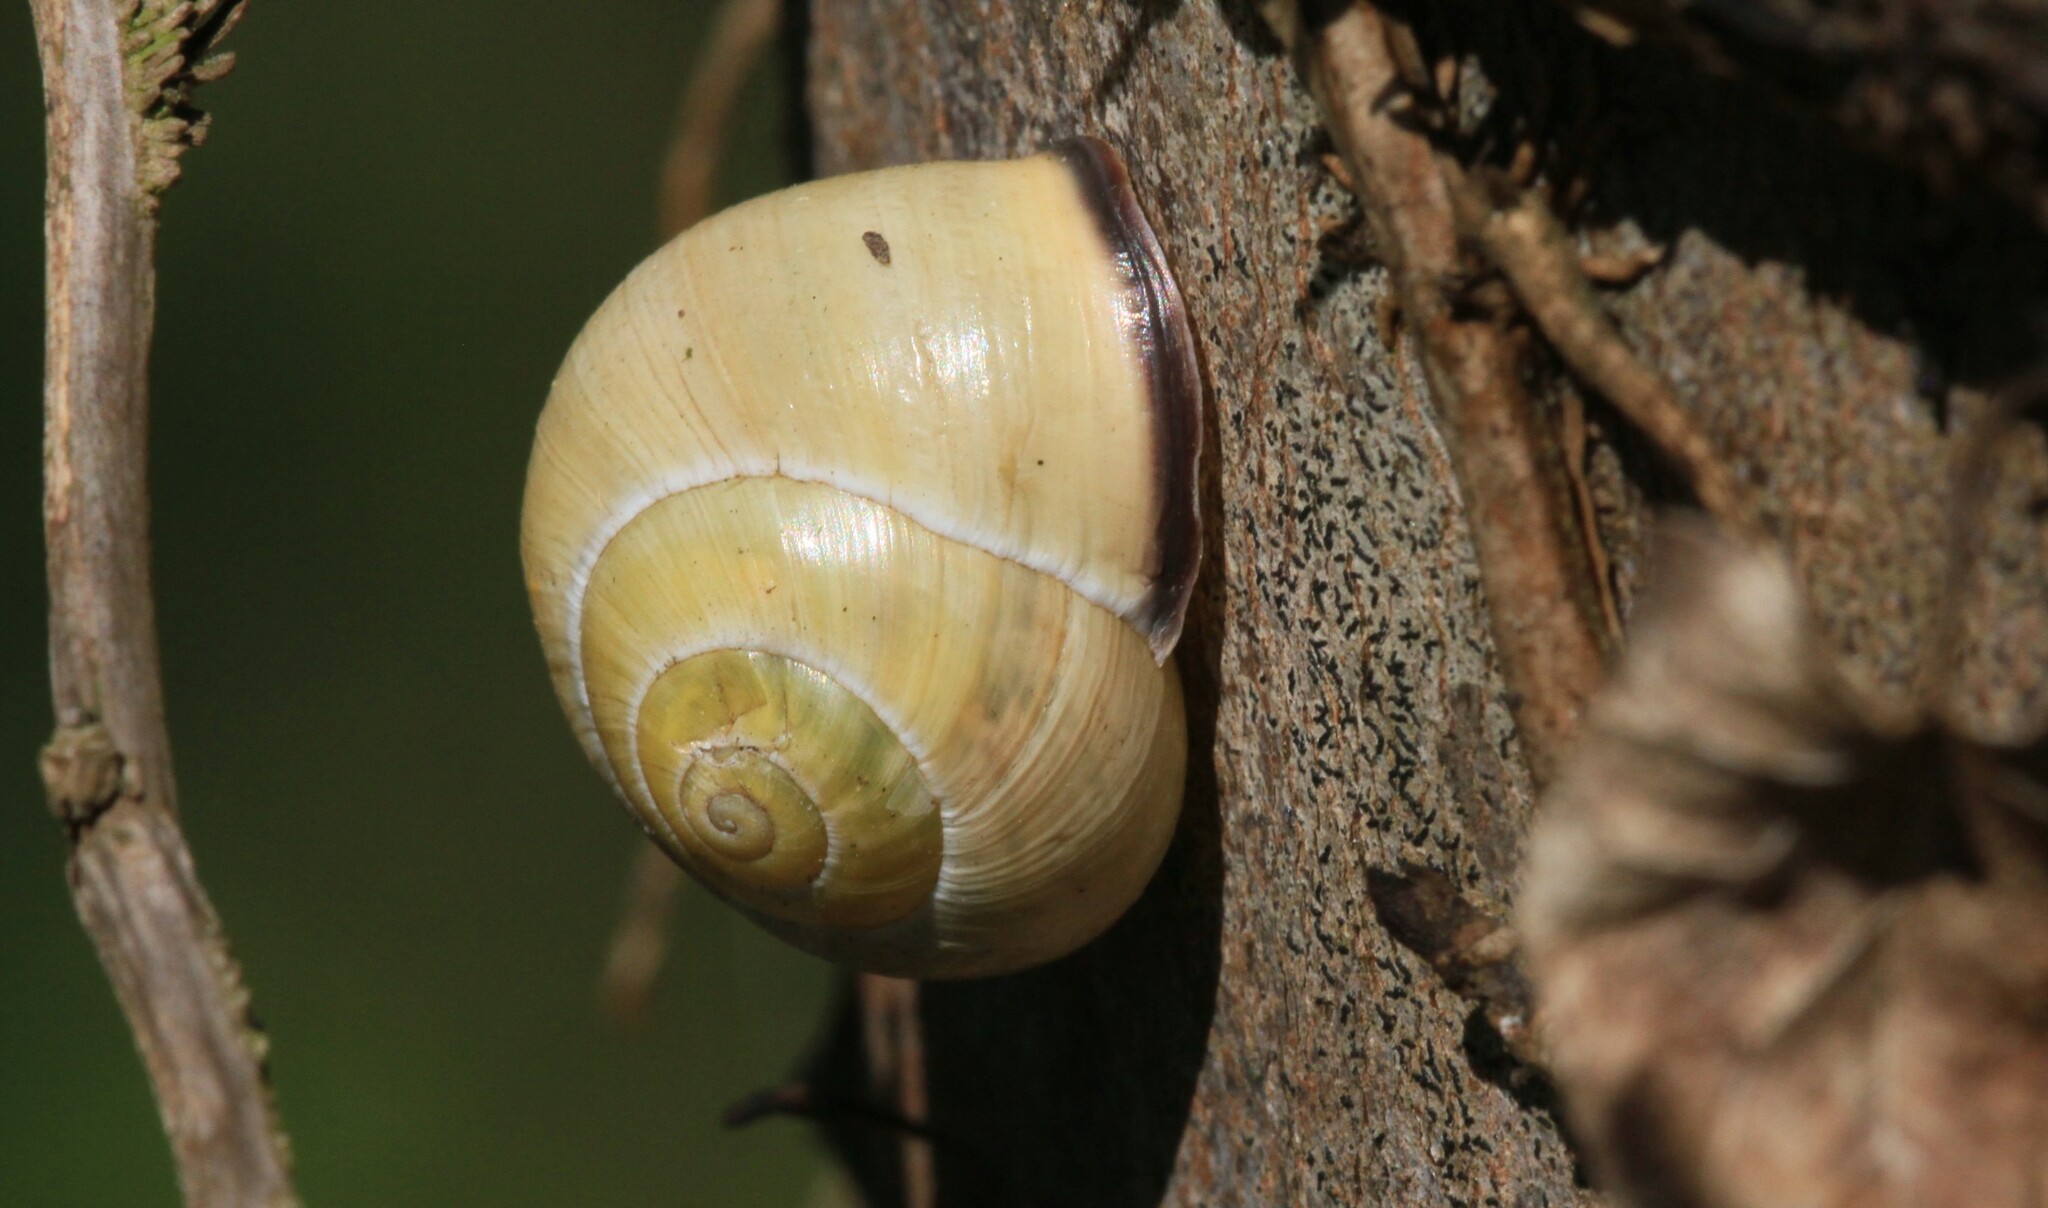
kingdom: Animalia
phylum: Mollusca
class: Gastropoda
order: Stylommatophora
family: Helicidae
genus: Cepaea
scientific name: Cepaea nemoralis
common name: Grovesnail
